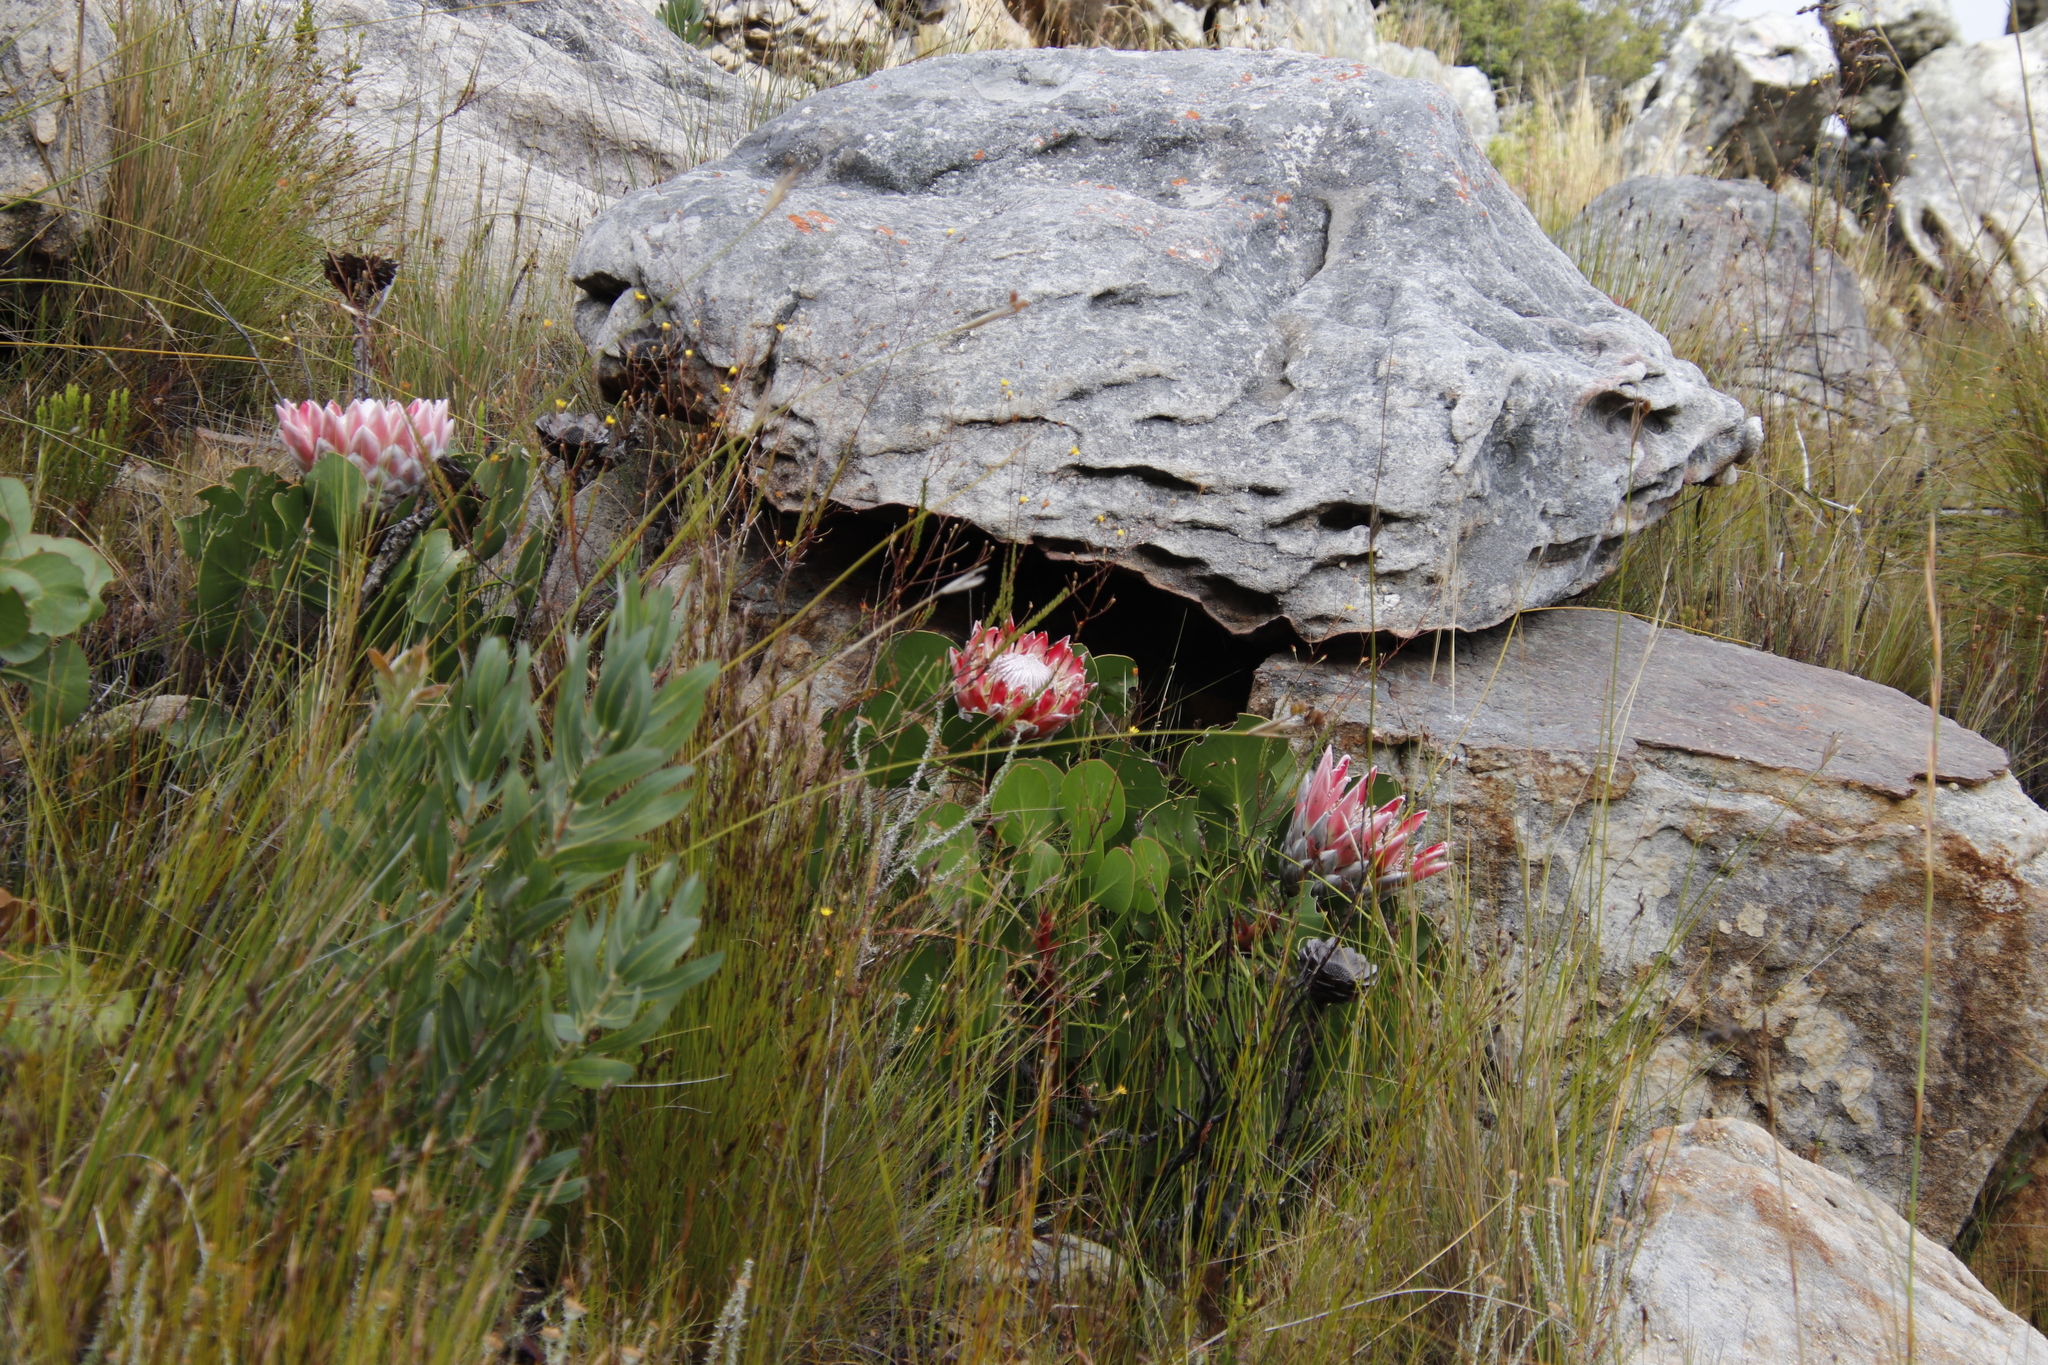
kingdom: Plantae
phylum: Tracheophyta
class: Magnoliopsida
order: Proteales
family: Proteaceae
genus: Protea
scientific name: Protea cynaroides
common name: King protea
